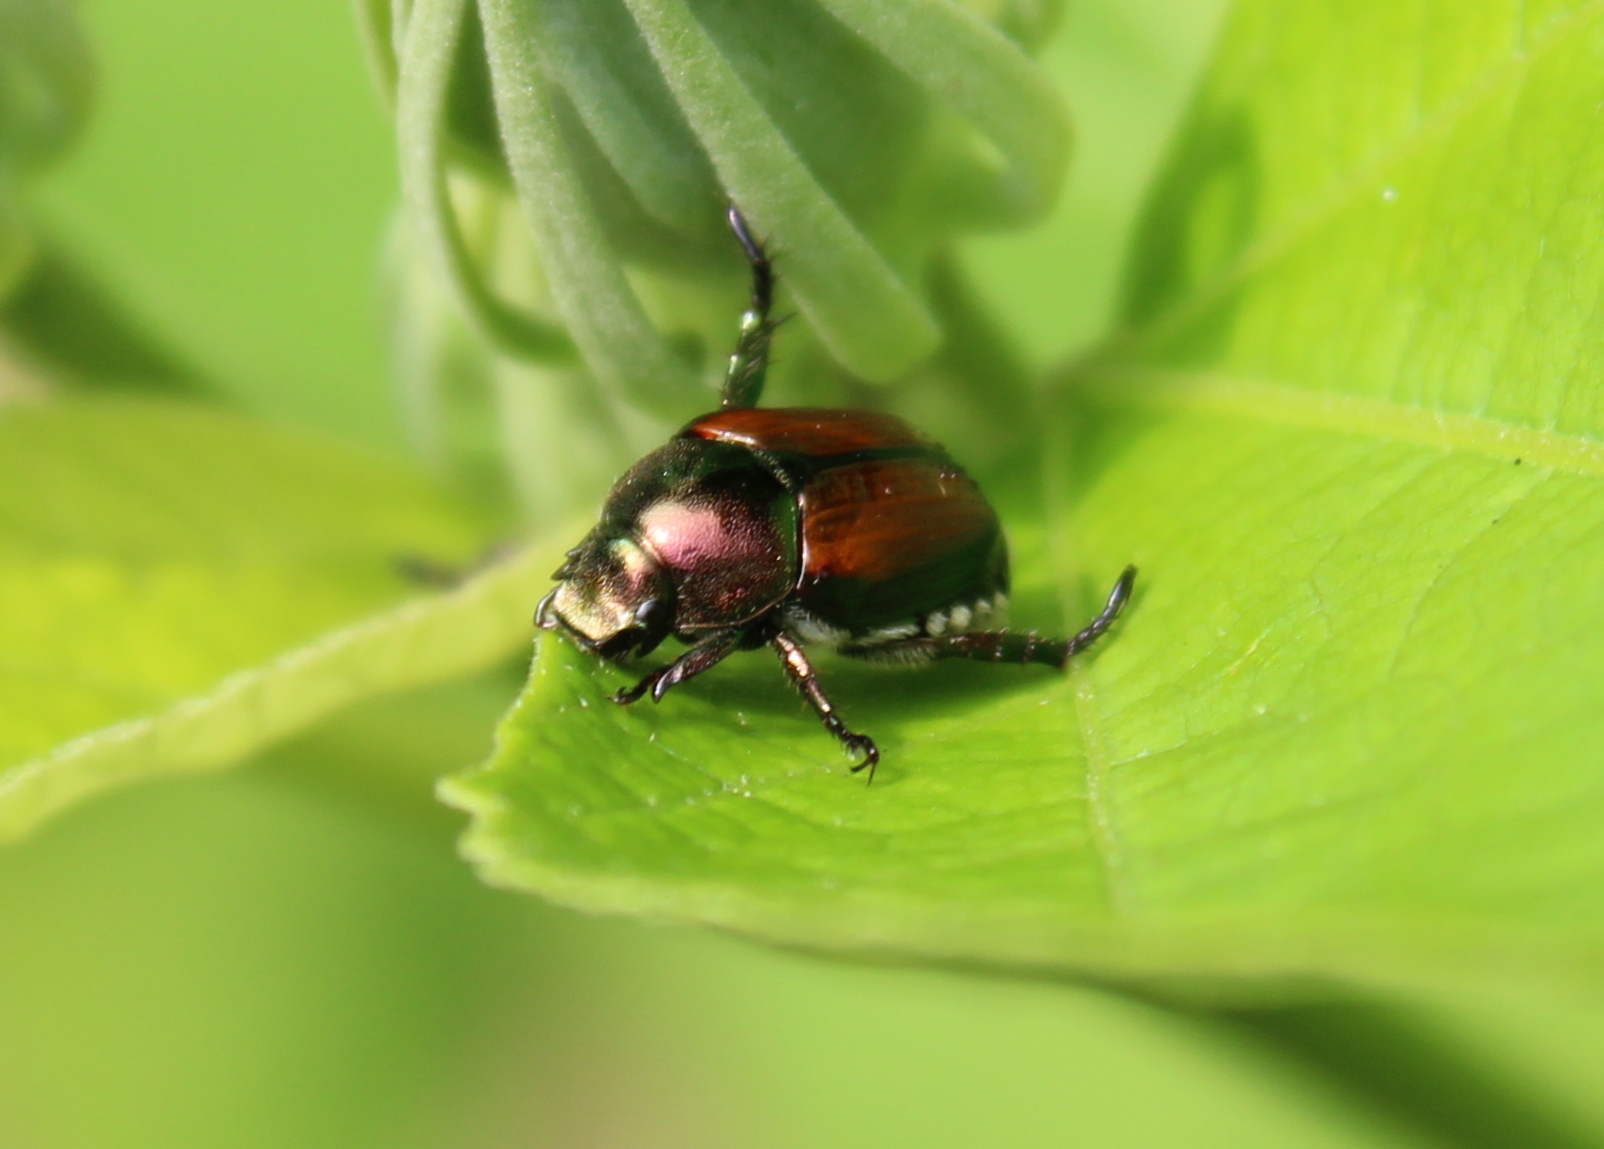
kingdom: Animalia
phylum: Arthropoda
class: Insecta
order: Coleoptera
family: Scarabaeidae
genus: Popillia
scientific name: Popillia japonica
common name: Japanese beetle
